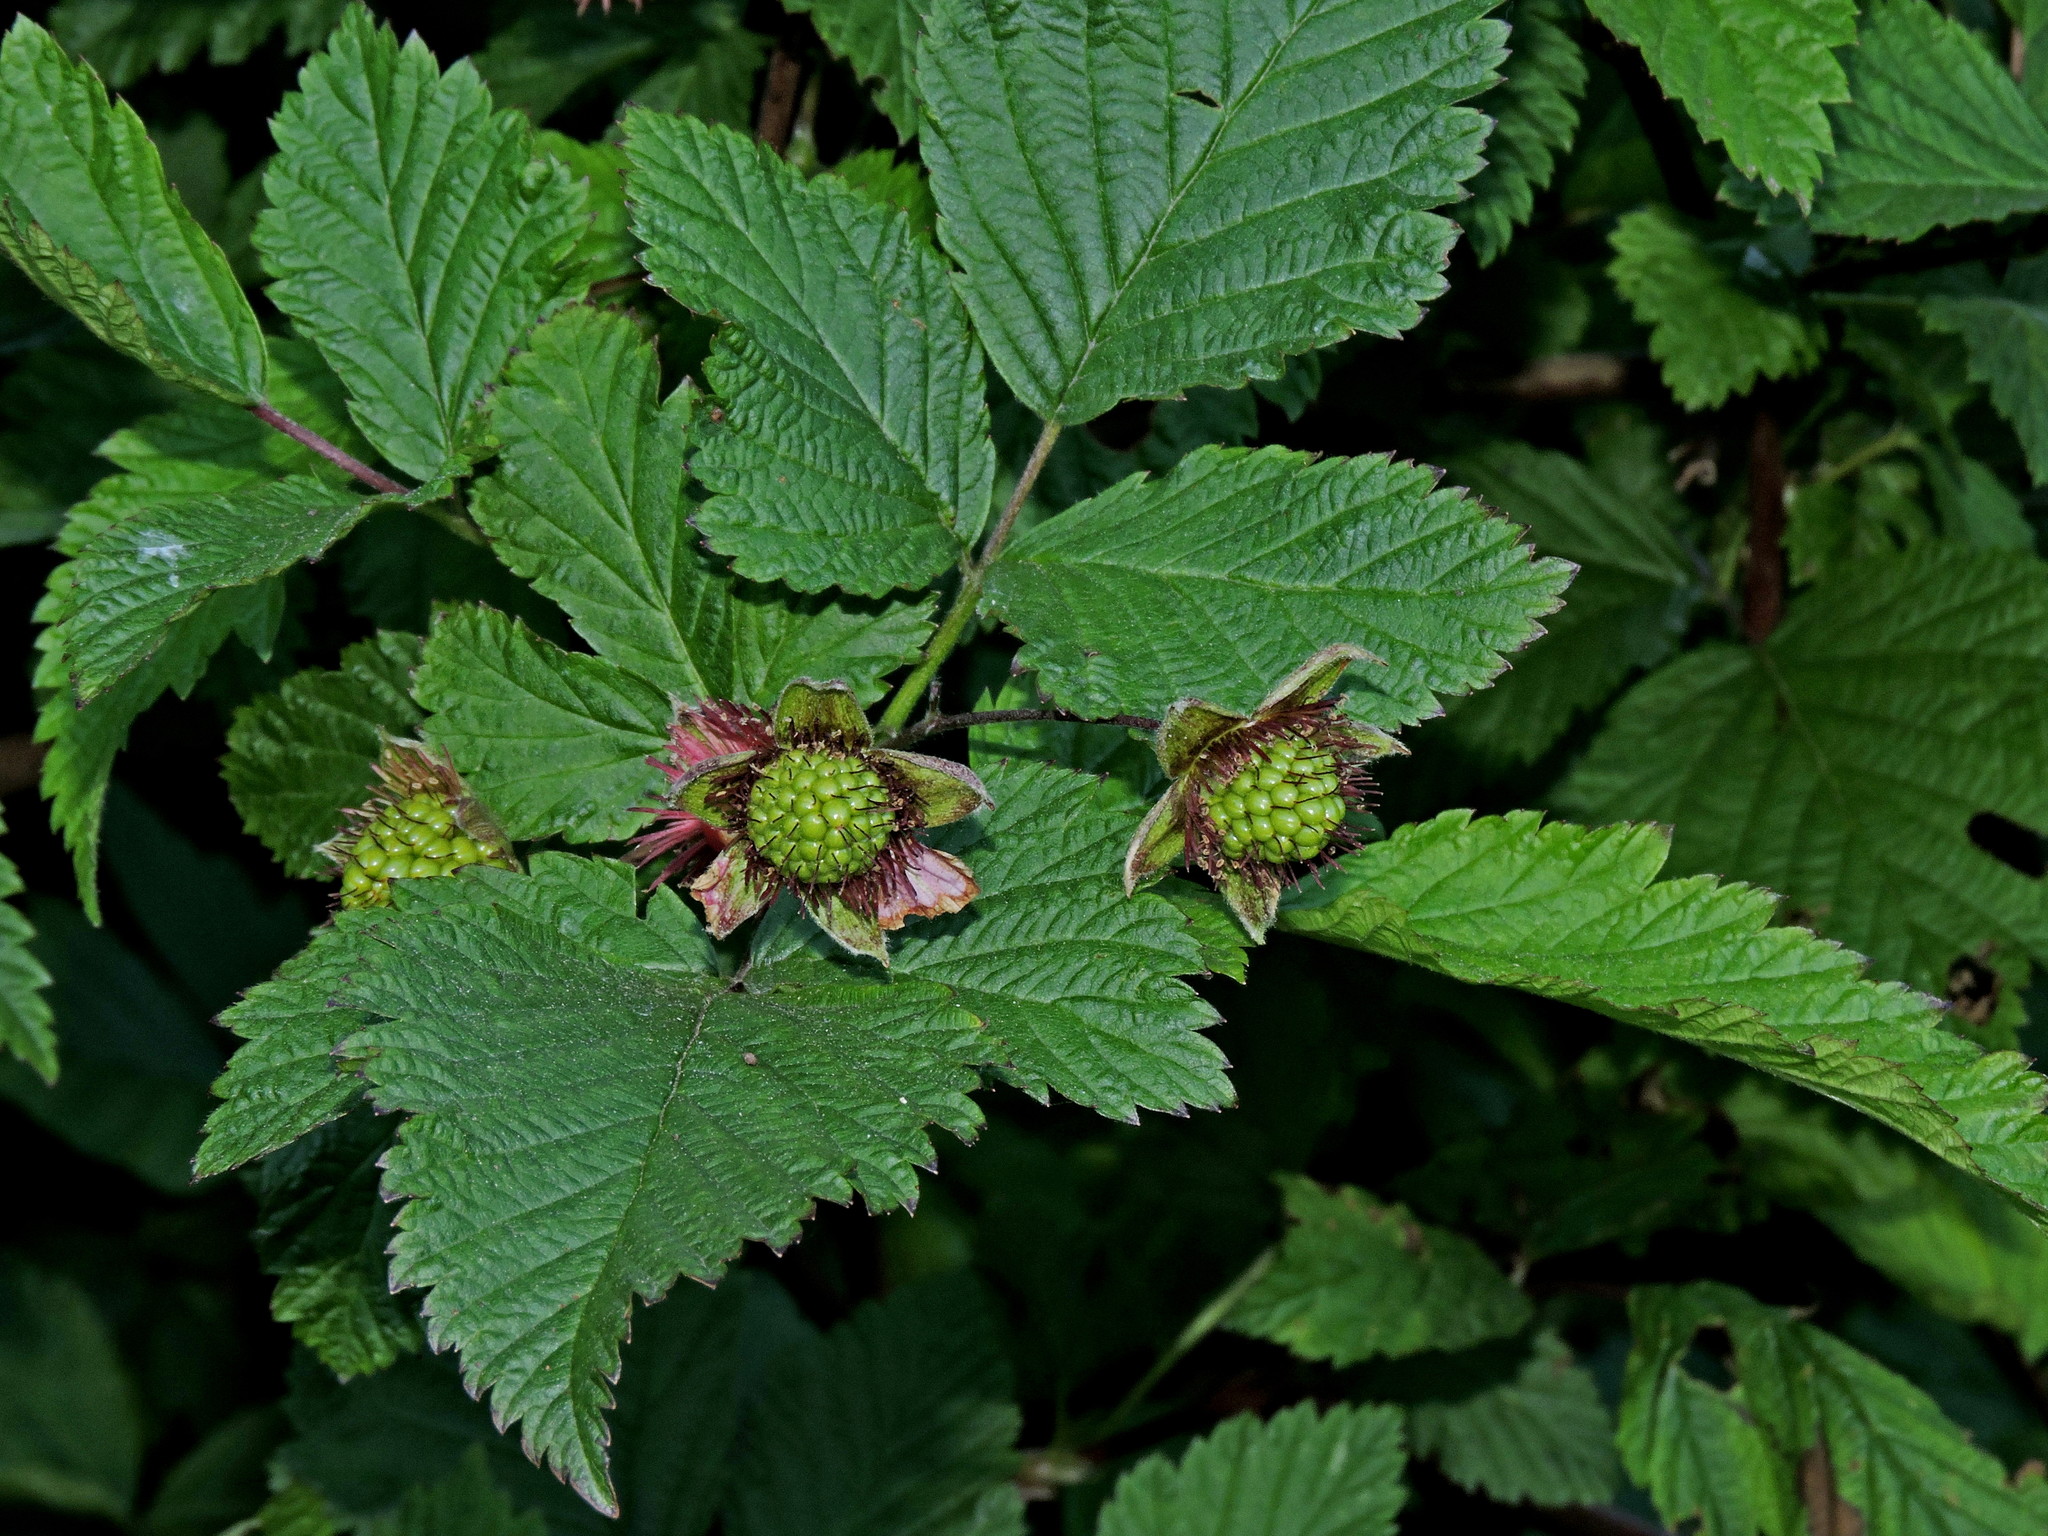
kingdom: Plantae
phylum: Tracheophyta
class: Magnoliopsida
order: Rosales
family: Rosaceae
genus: Rubus
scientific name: Rubus spectabilis
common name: Salmonberry
